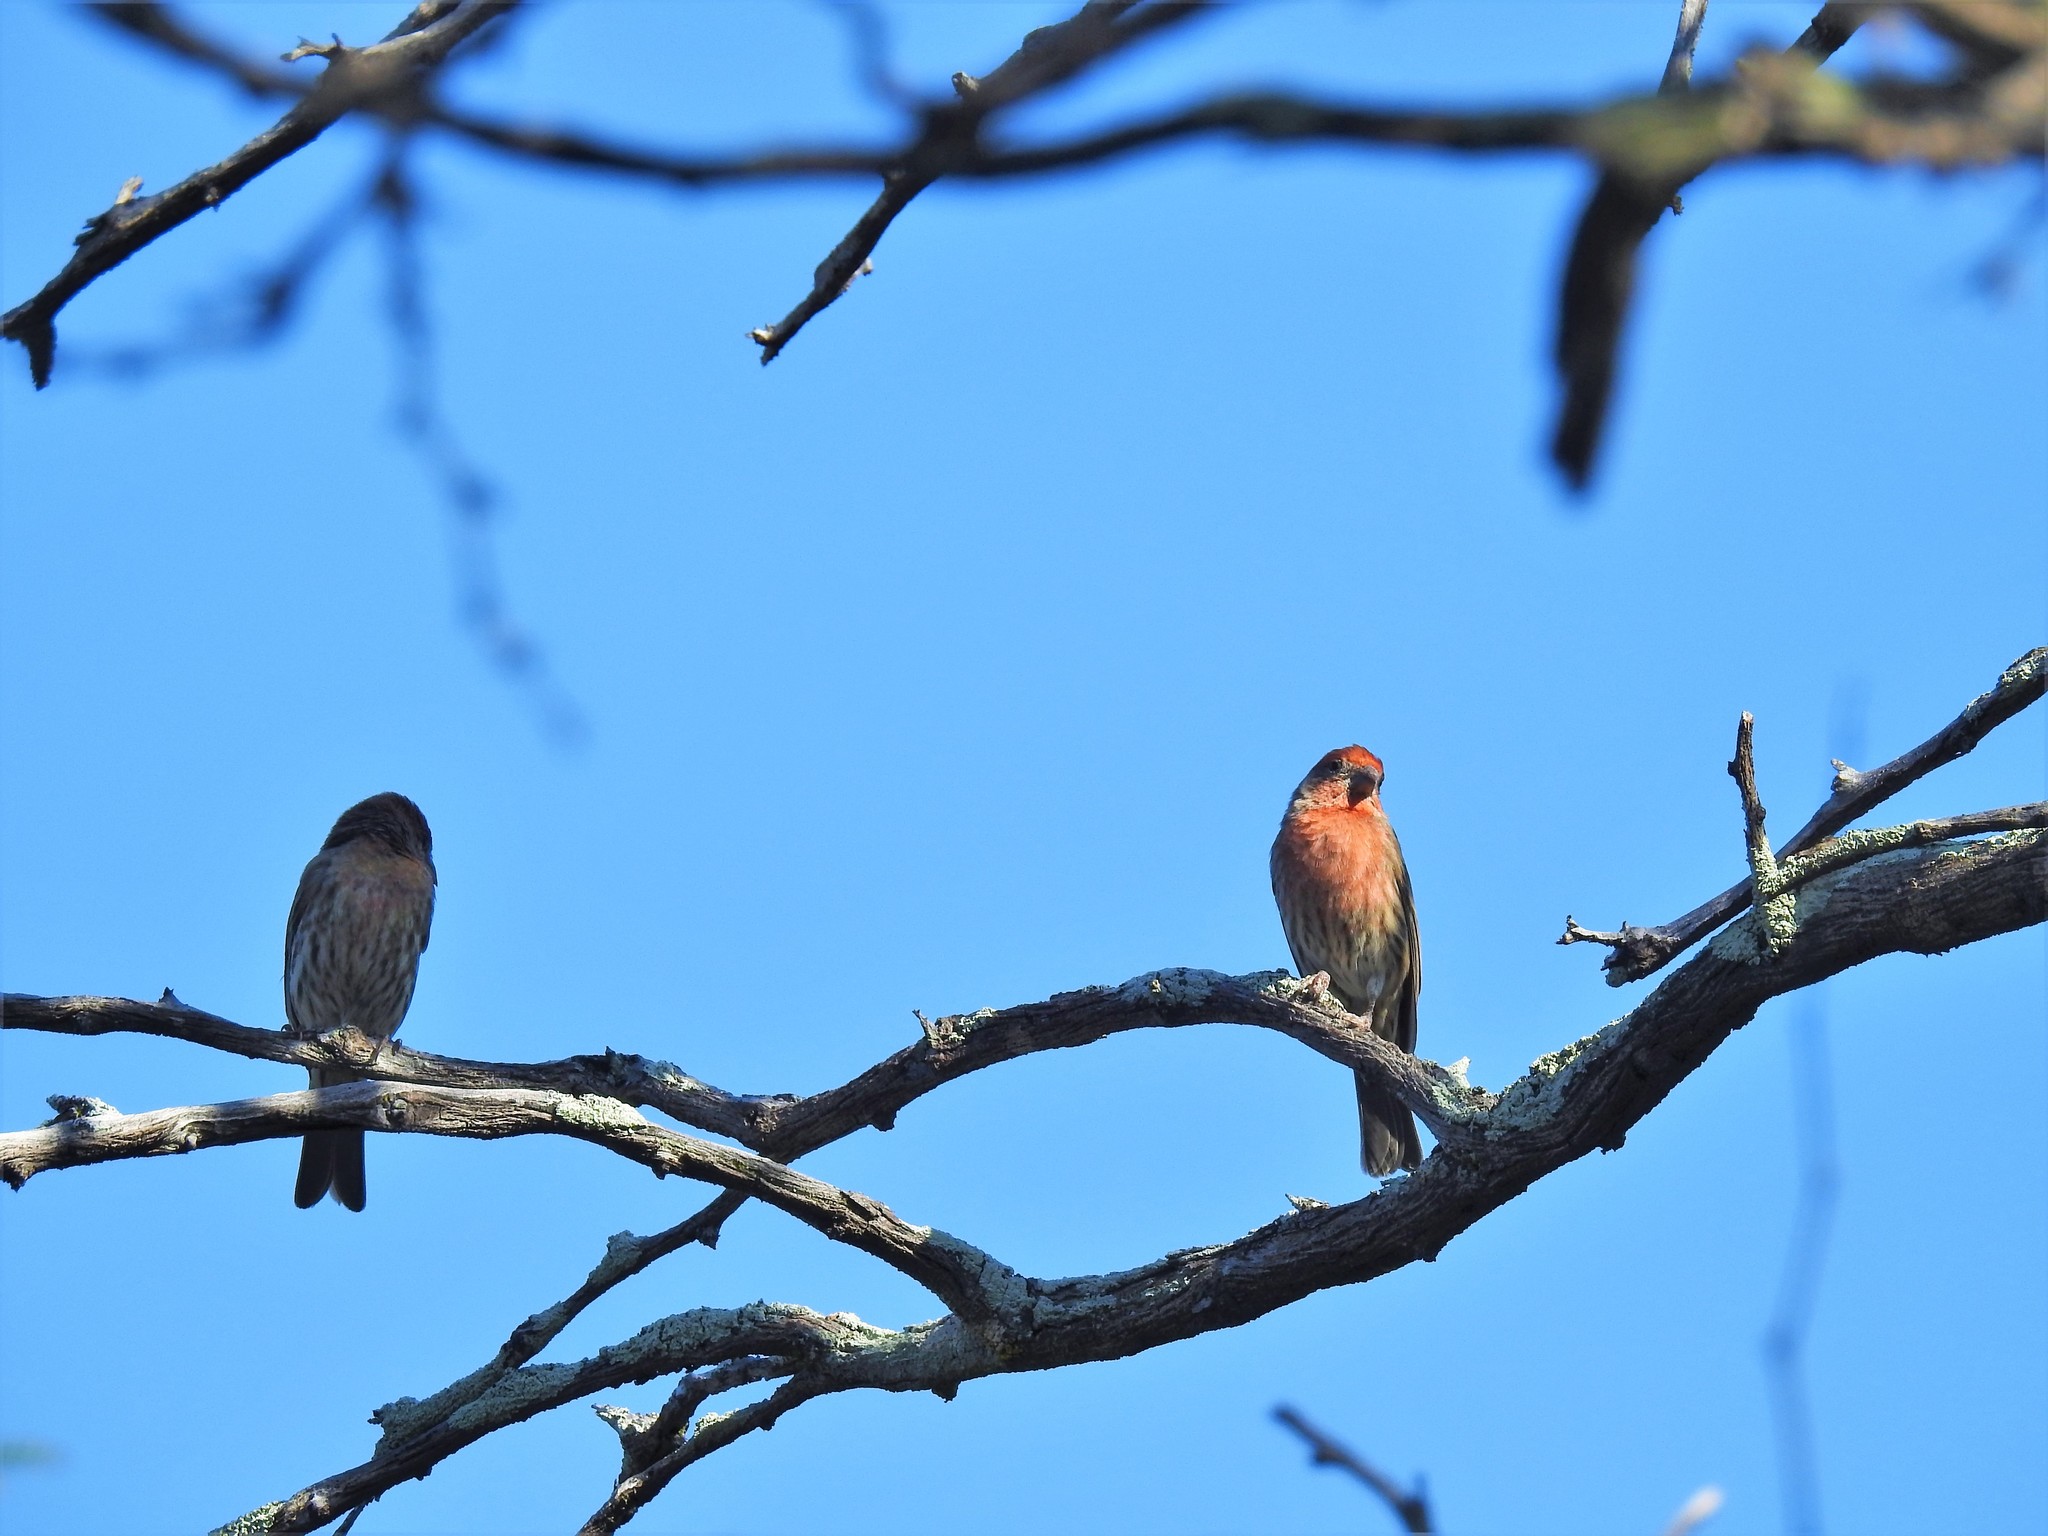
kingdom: Animalia
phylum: Chordata
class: Aves
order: Passeriformes
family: Fringillidae
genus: Haemorhous
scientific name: Haemorhous mexicanus
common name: House finch
